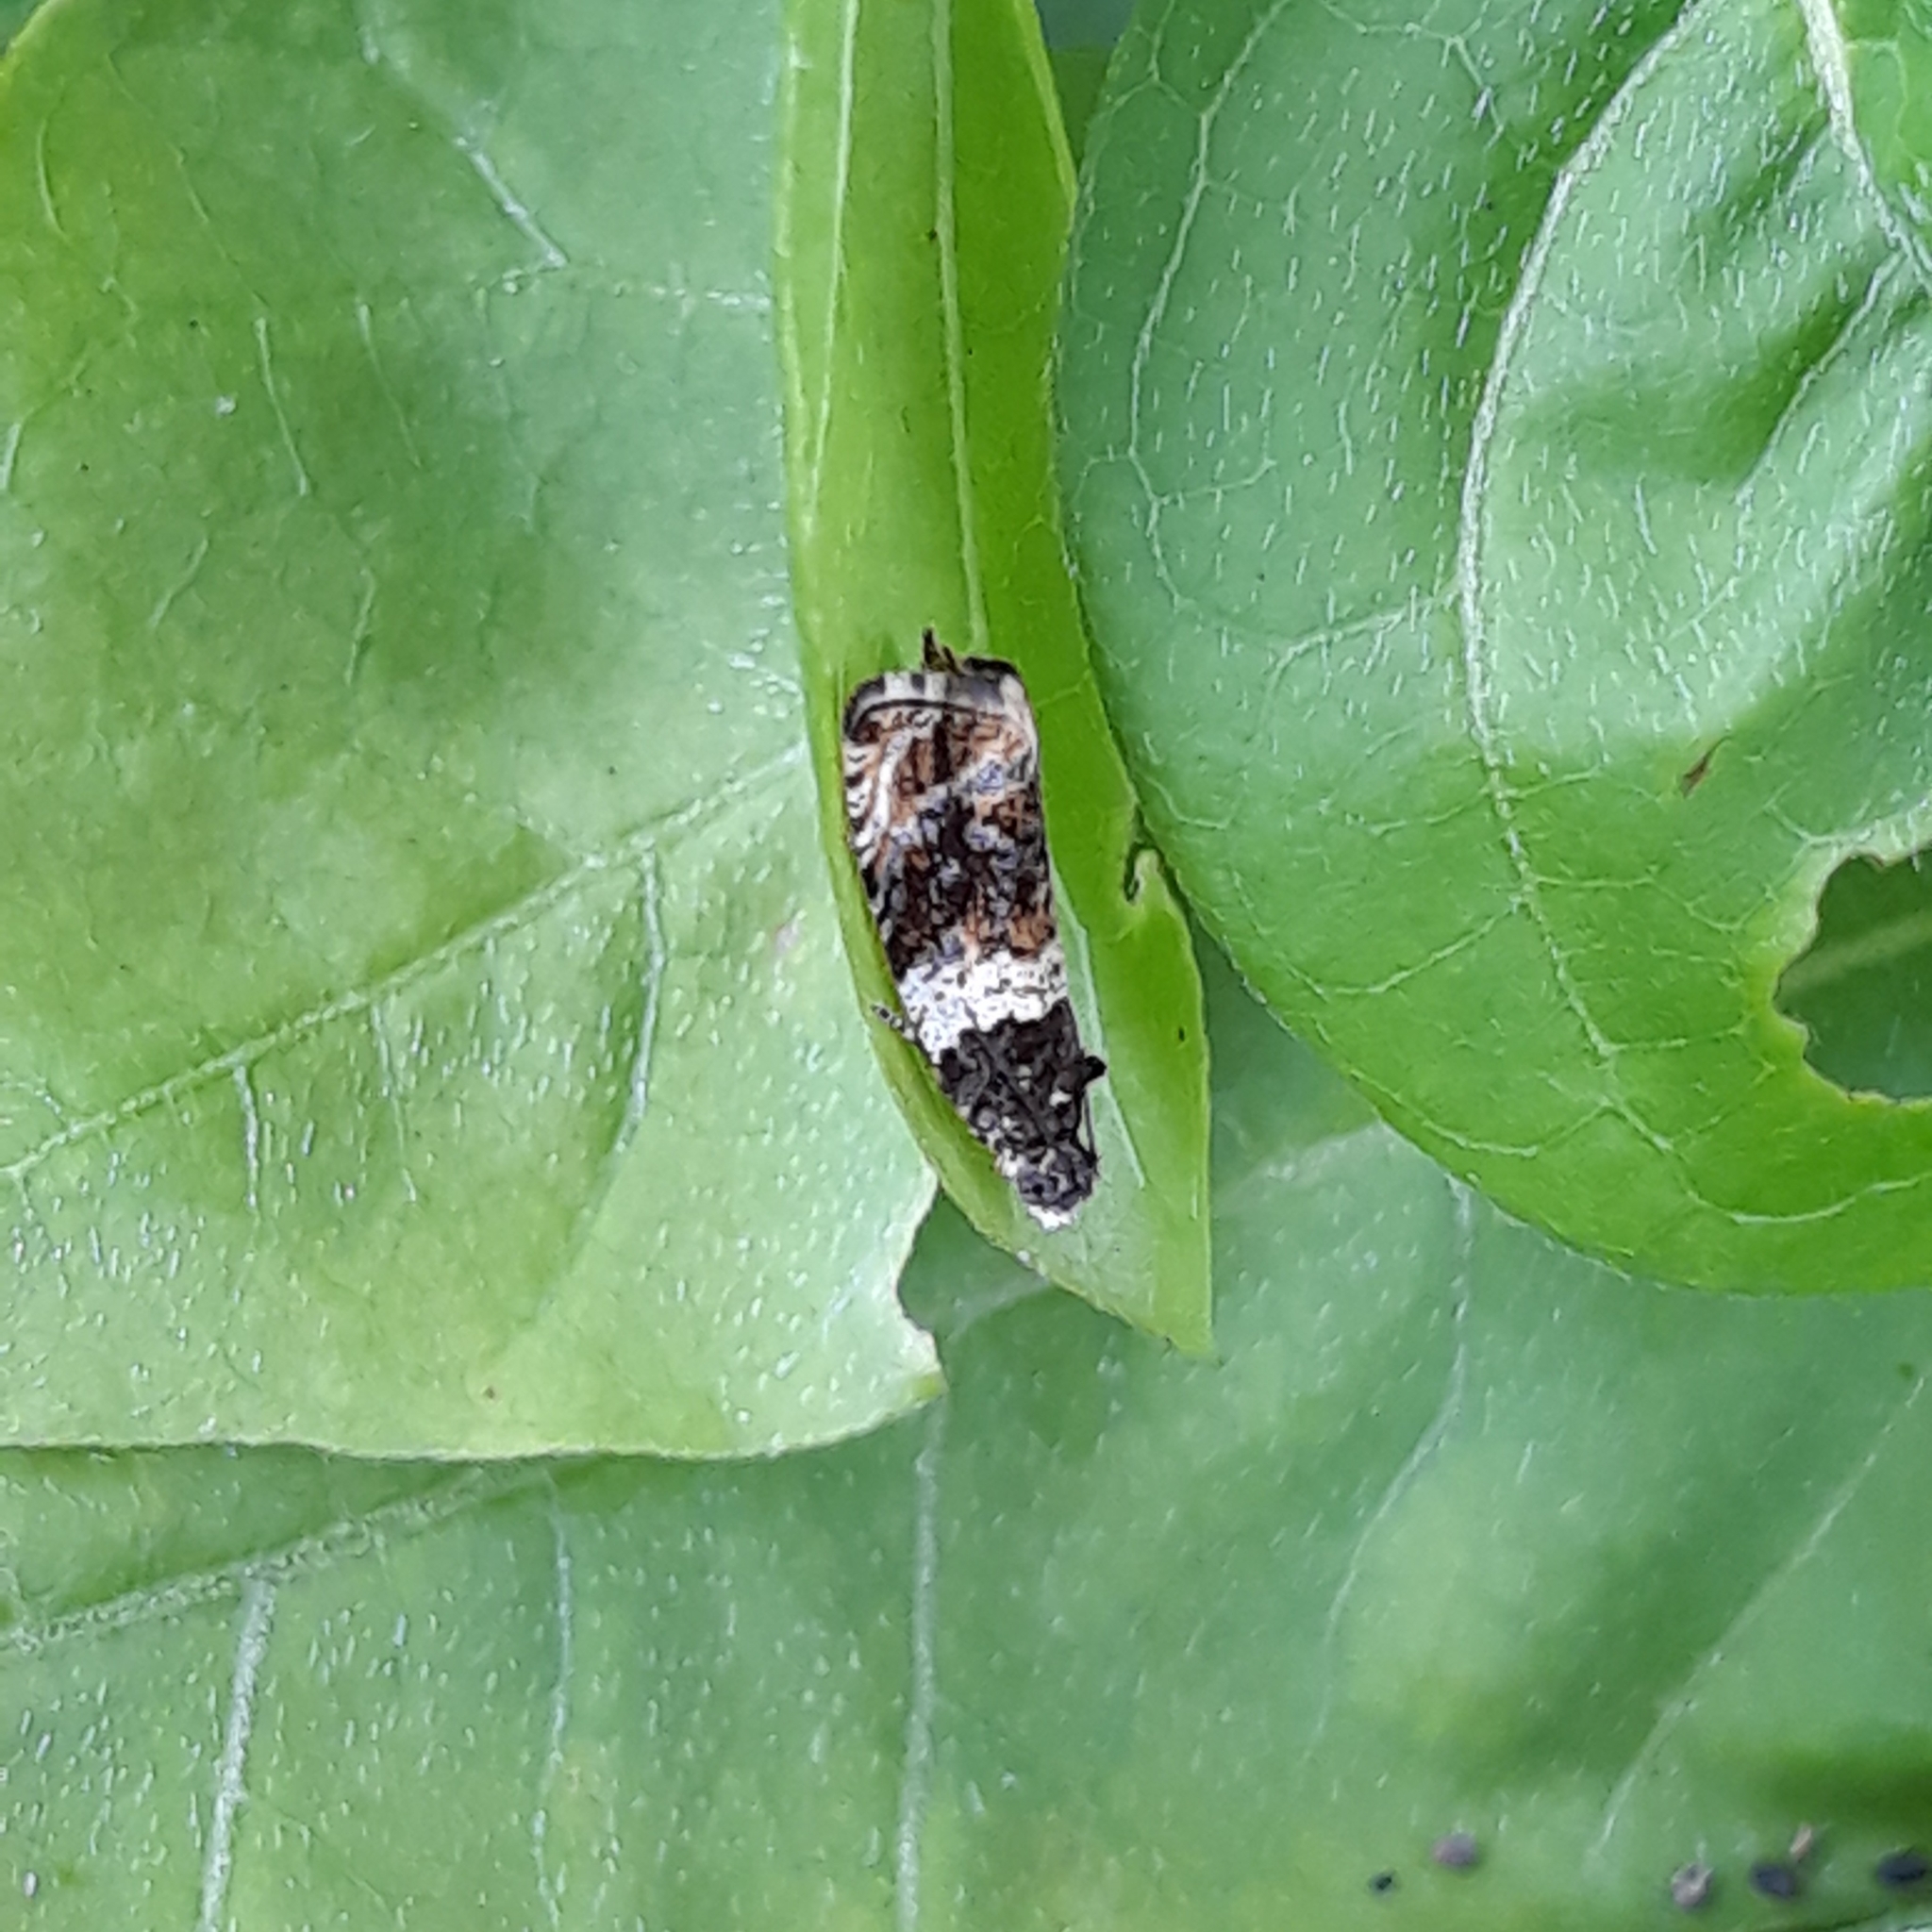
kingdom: Animalia
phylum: Arthropoda
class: Insecta
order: Lepidoptera
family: Tortricidae
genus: Olethreutes
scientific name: Olethreutes fasciatana
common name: Banded olethreutes moth
